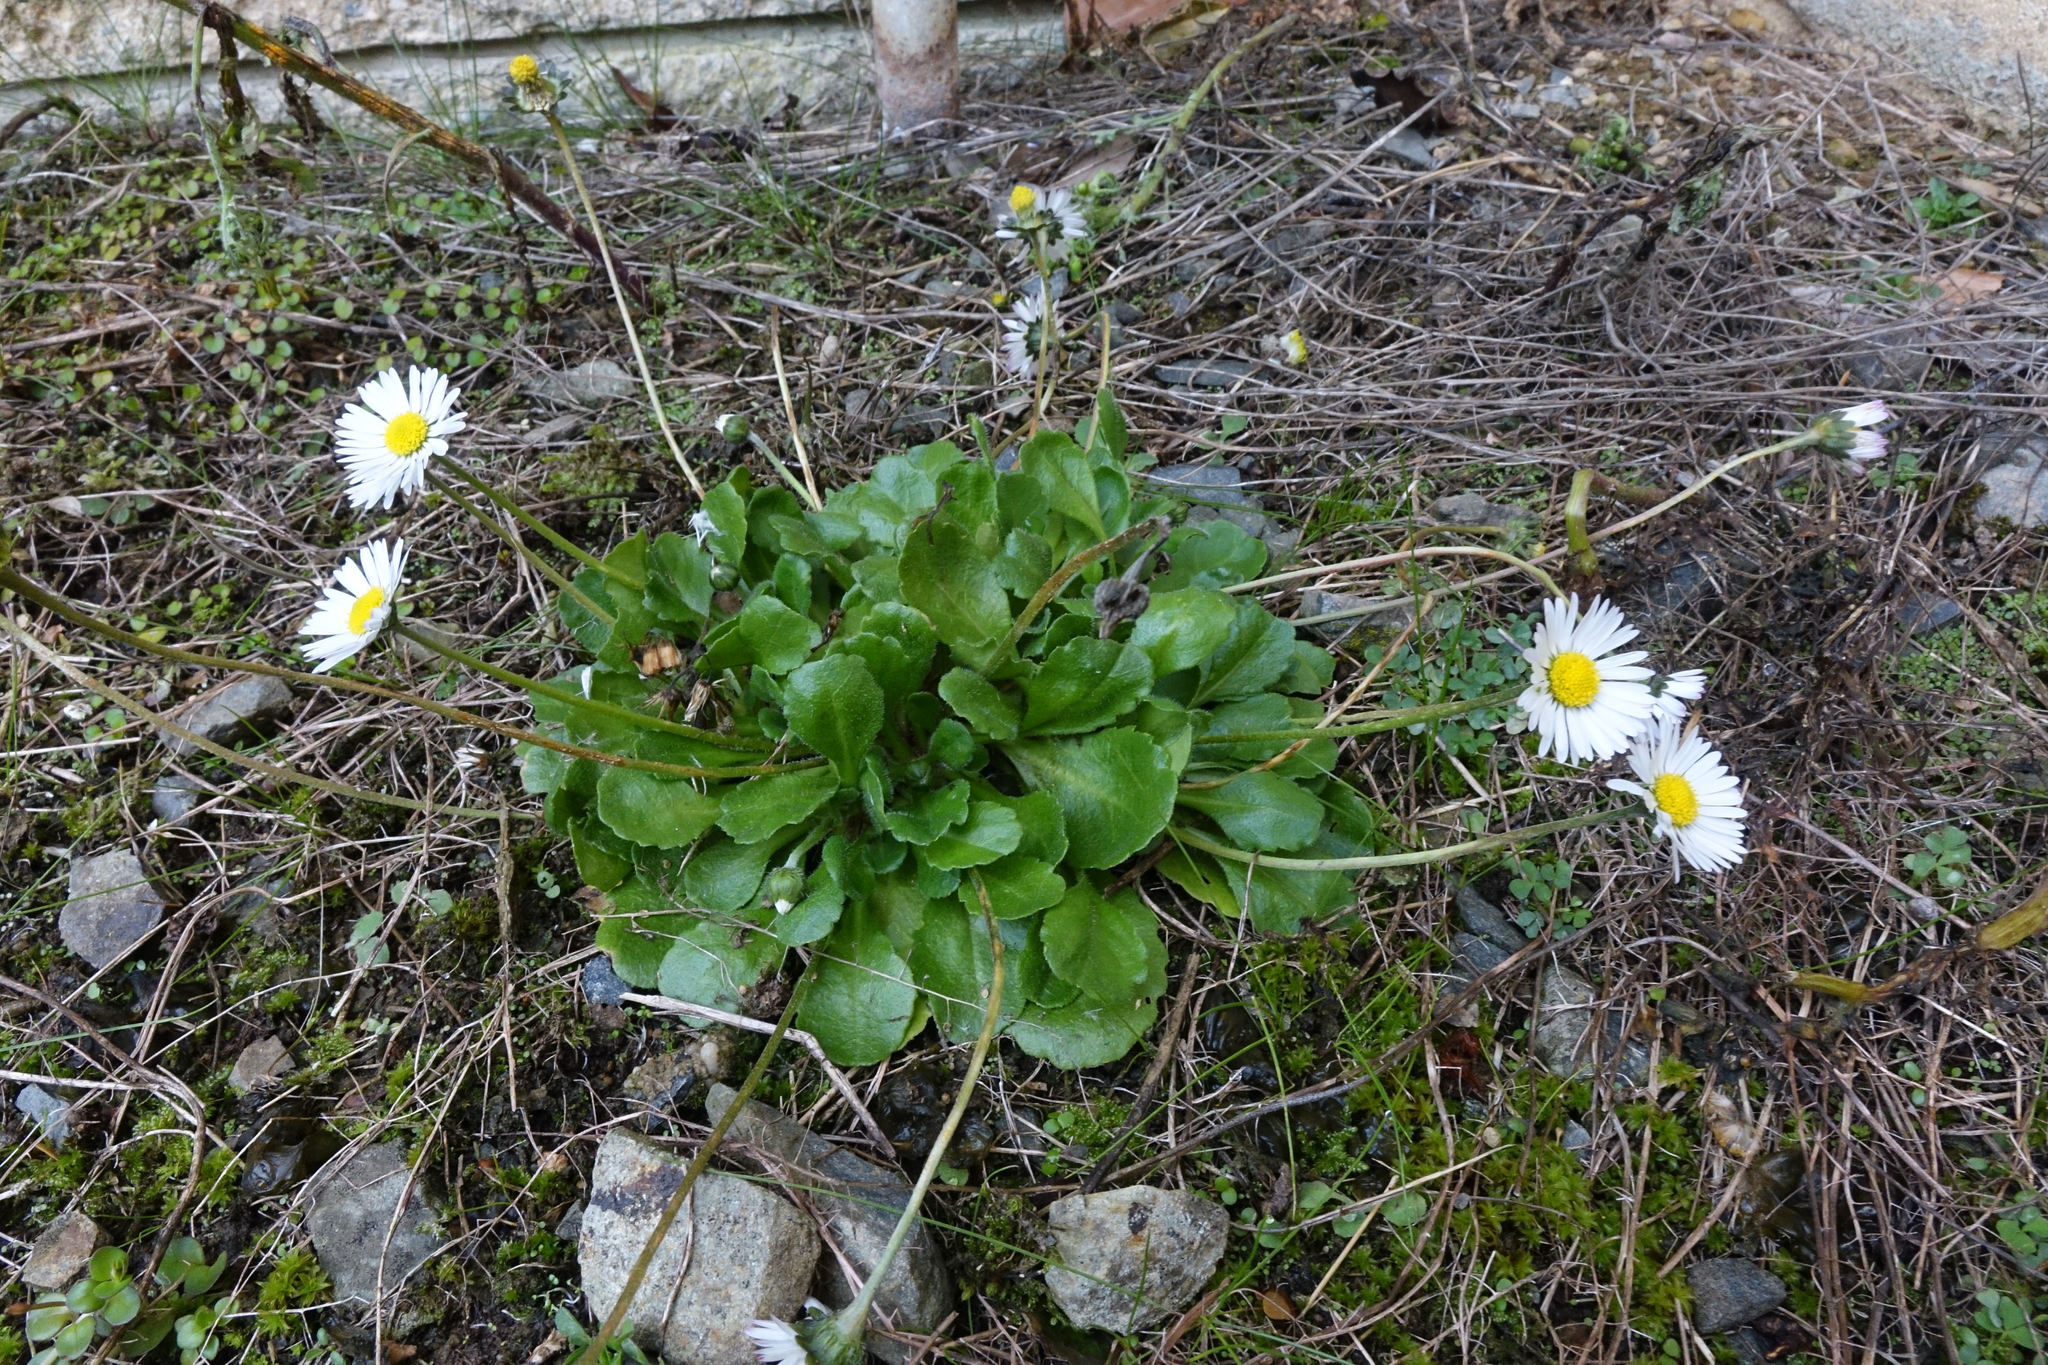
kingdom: Plantae
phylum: Tracheophyta
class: Magnoliopsida
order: Asterales
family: Asteraceae
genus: Bellis
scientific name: Bellis perennis
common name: Lawndaisy
